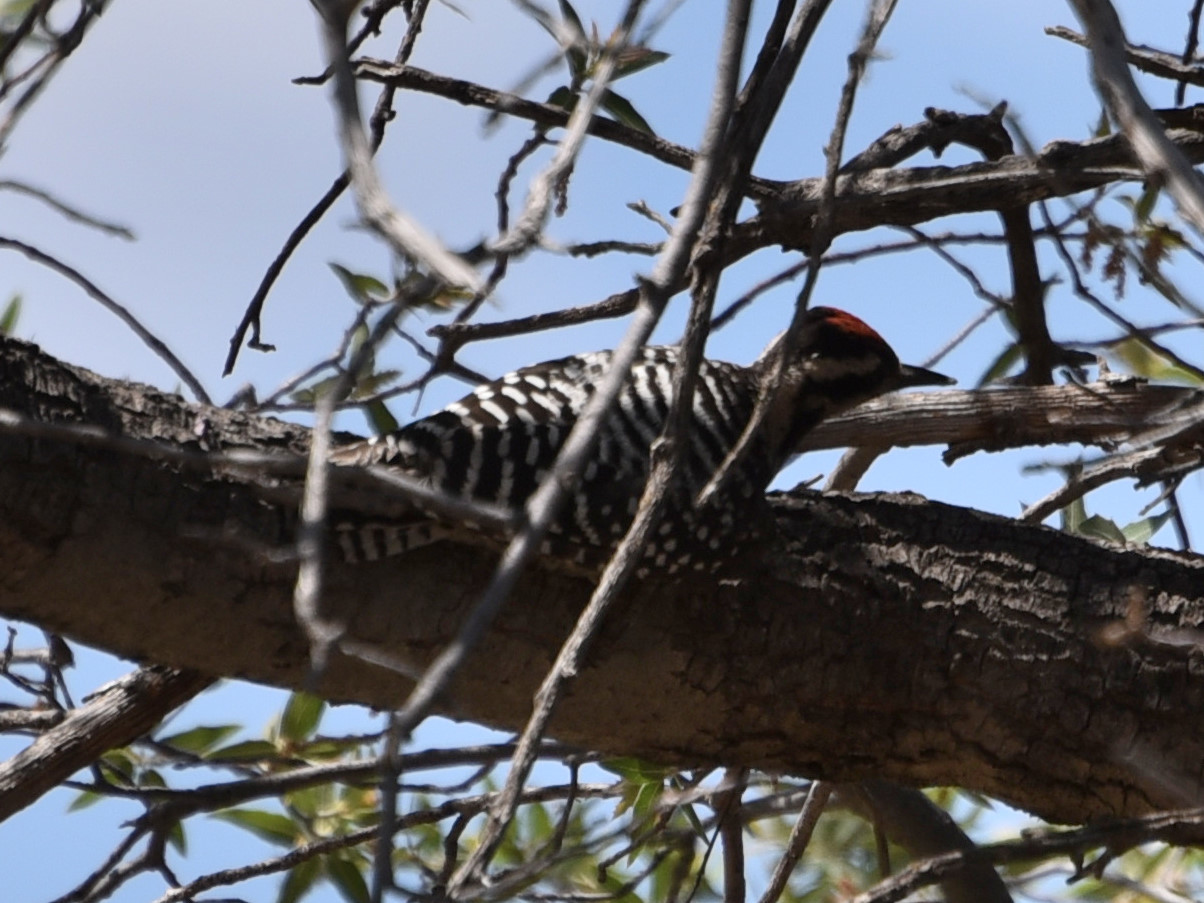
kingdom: Animalia
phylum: Chordata
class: Aves
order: Piciformes
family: Picidae
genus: Dryobates
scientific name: Dryobates scalaris
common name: Ladder-backed woodpecker
